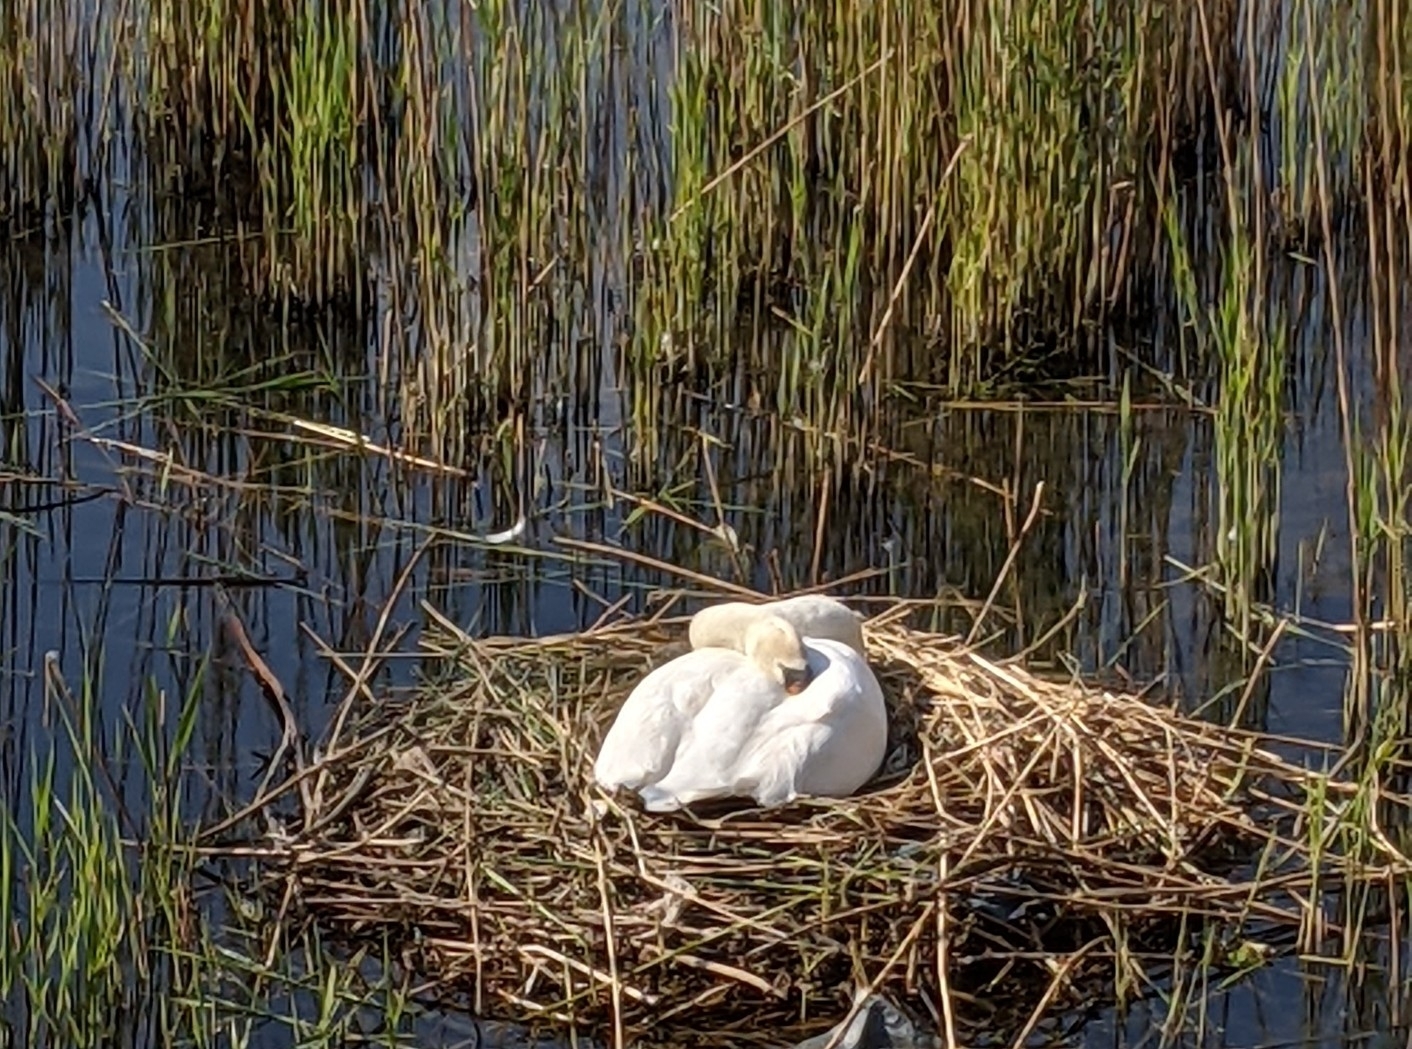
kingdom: Animalia
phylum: Chordata
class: Aves
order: Anseriformes
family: Anatidae
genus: Cygnus
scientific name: Cygnus olor
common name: Mute swan
